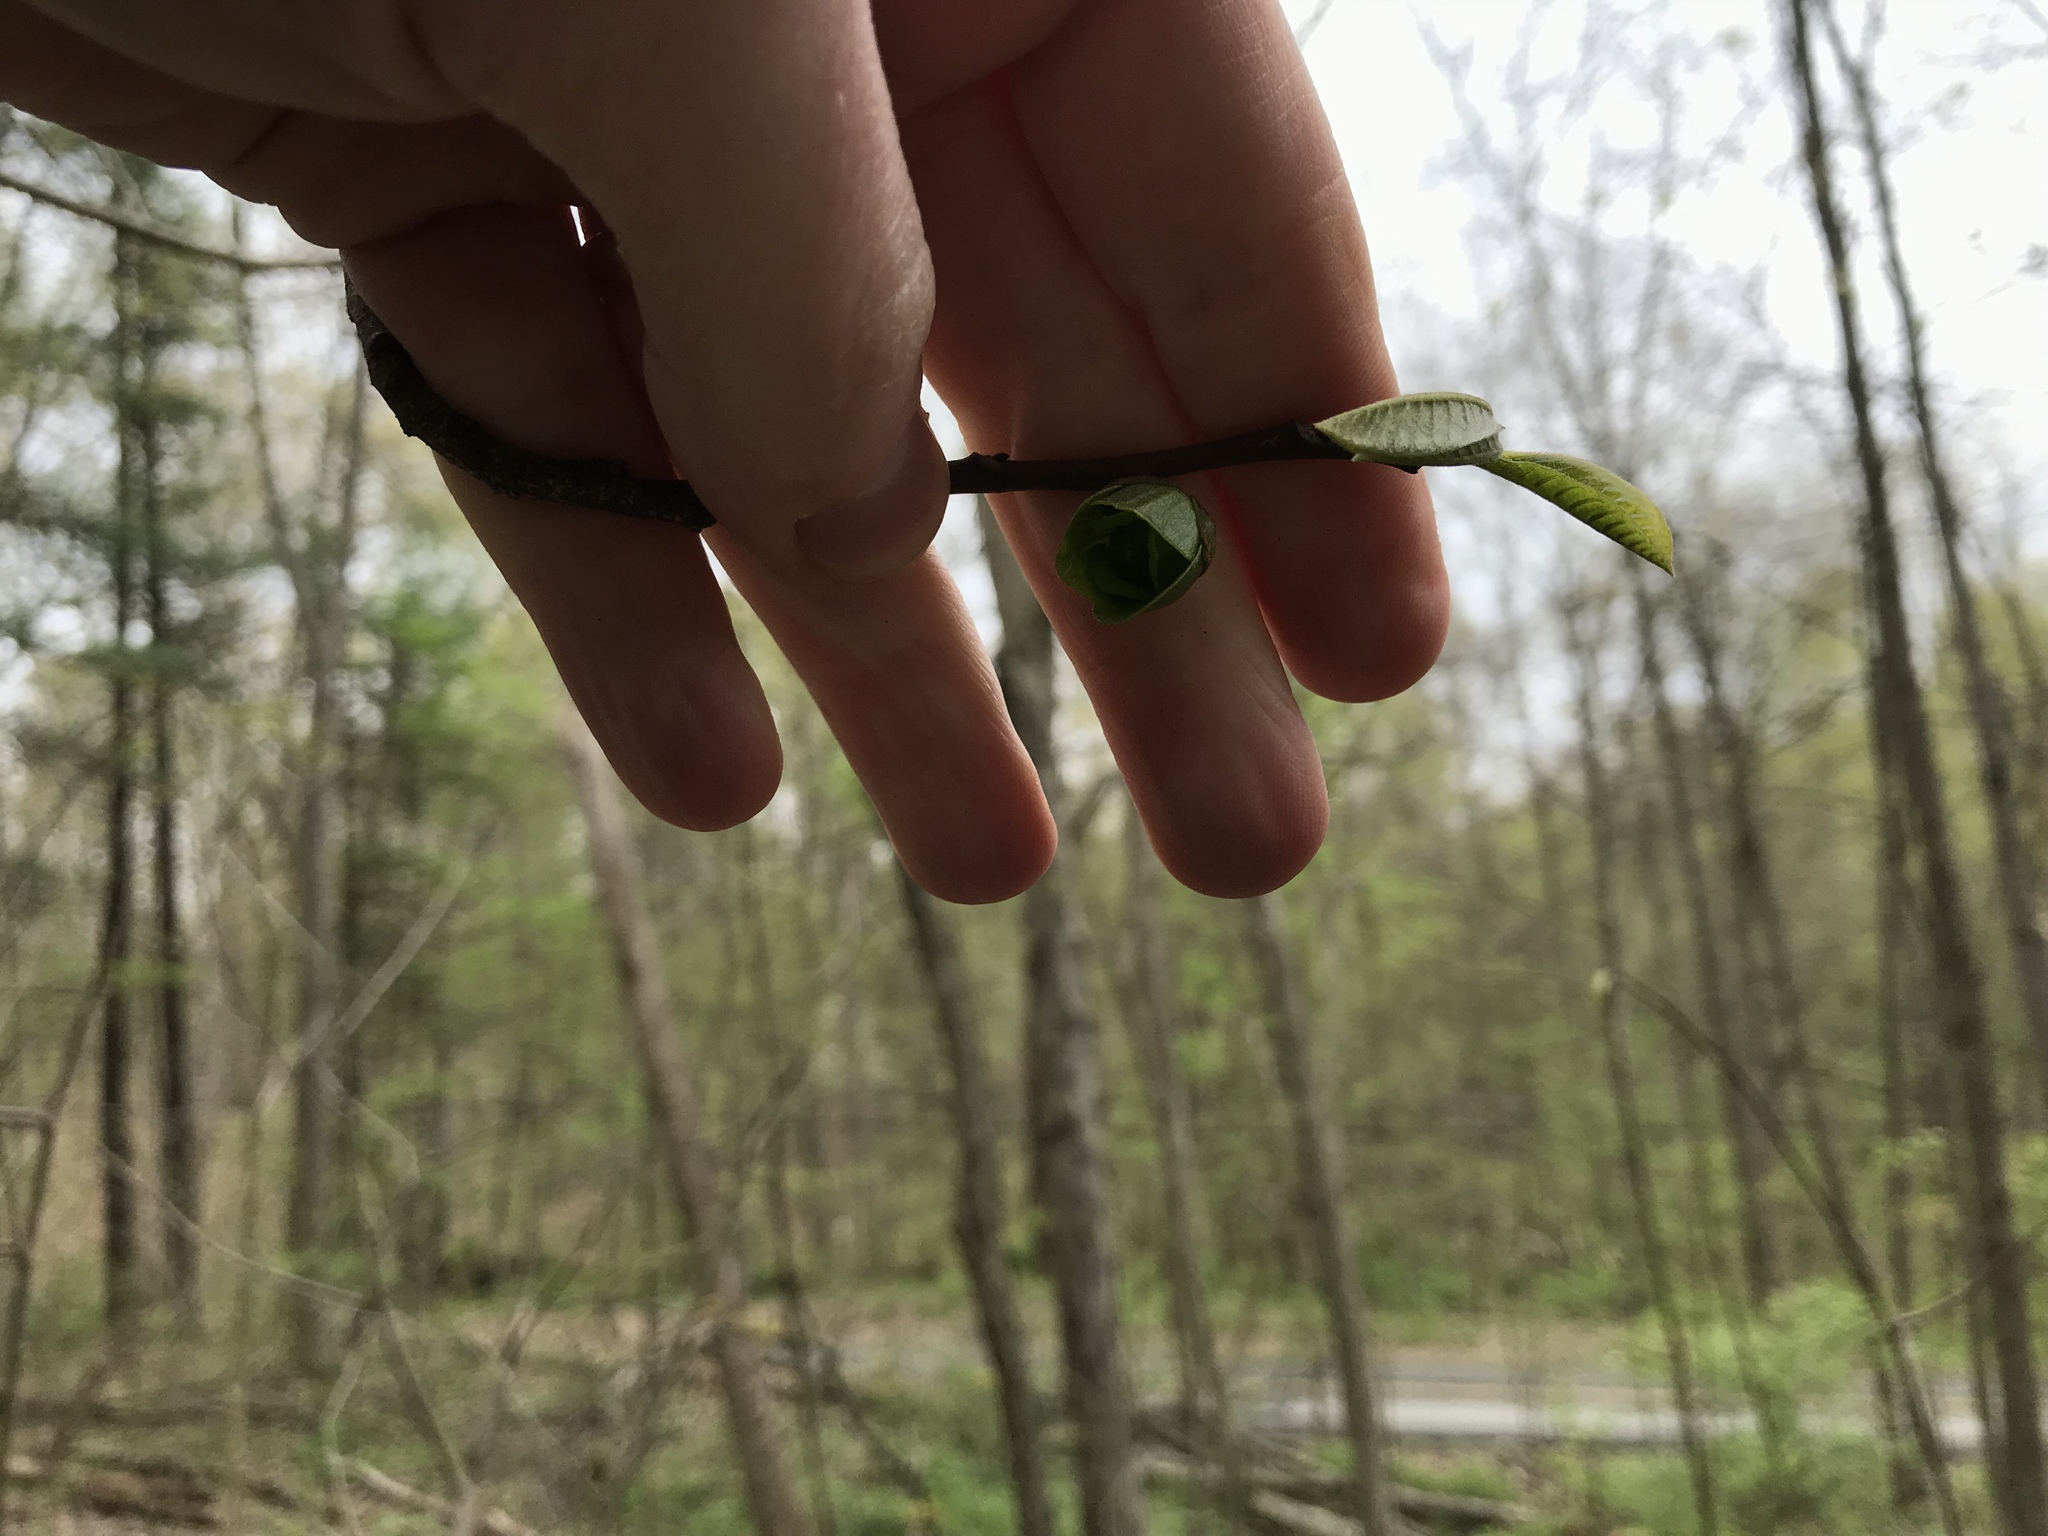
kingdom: Plantae
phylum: Tracheophyta
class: Magnoliopsida
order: Magnoliales
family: Annonaceae
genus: Asimina
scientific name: Asimina triloba
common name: Dog-banana
